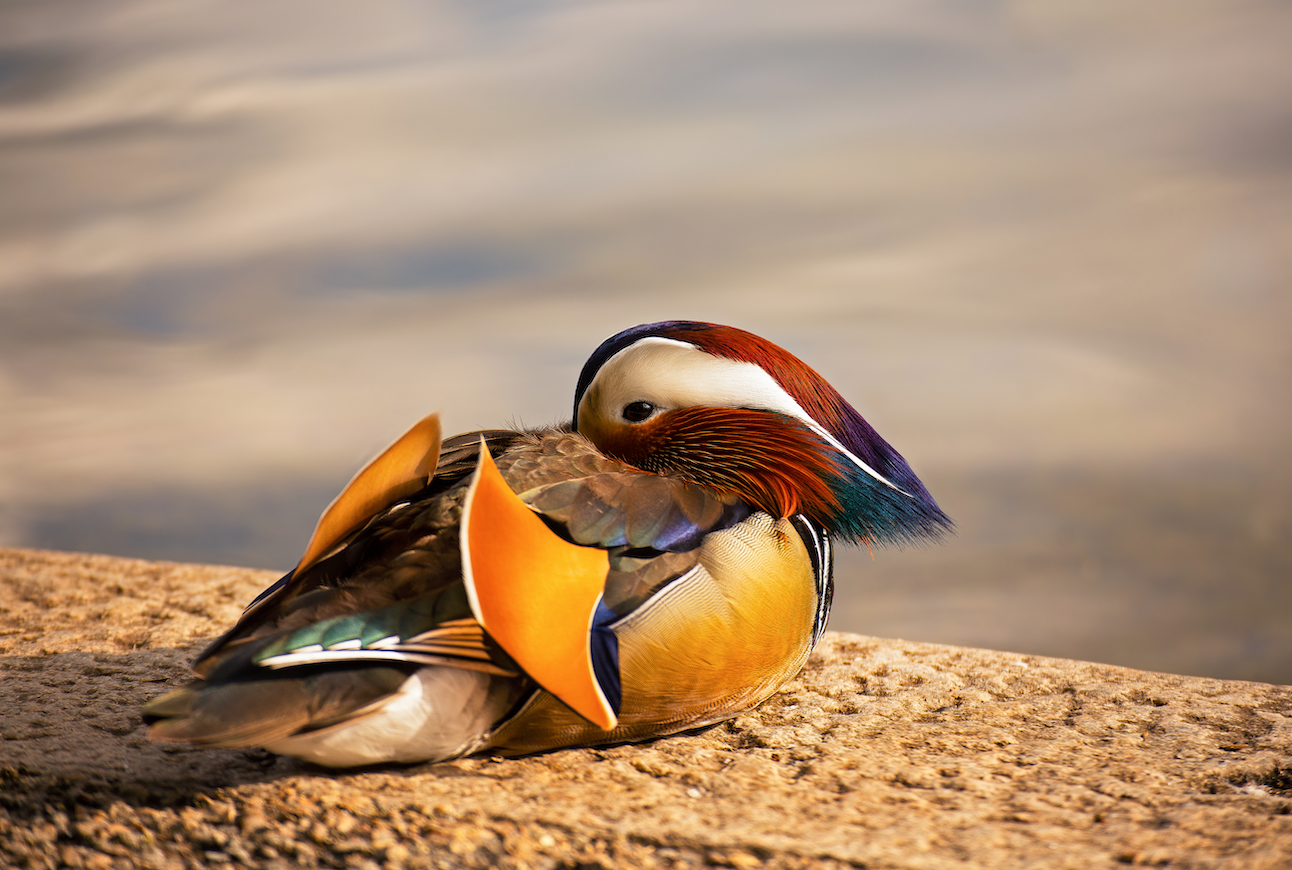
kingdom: Animalia
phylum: Chordata
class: Aves
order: Anseriformes
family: Anatidae
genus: Aix
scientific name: Aix galericulata
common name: Mandarin duck
